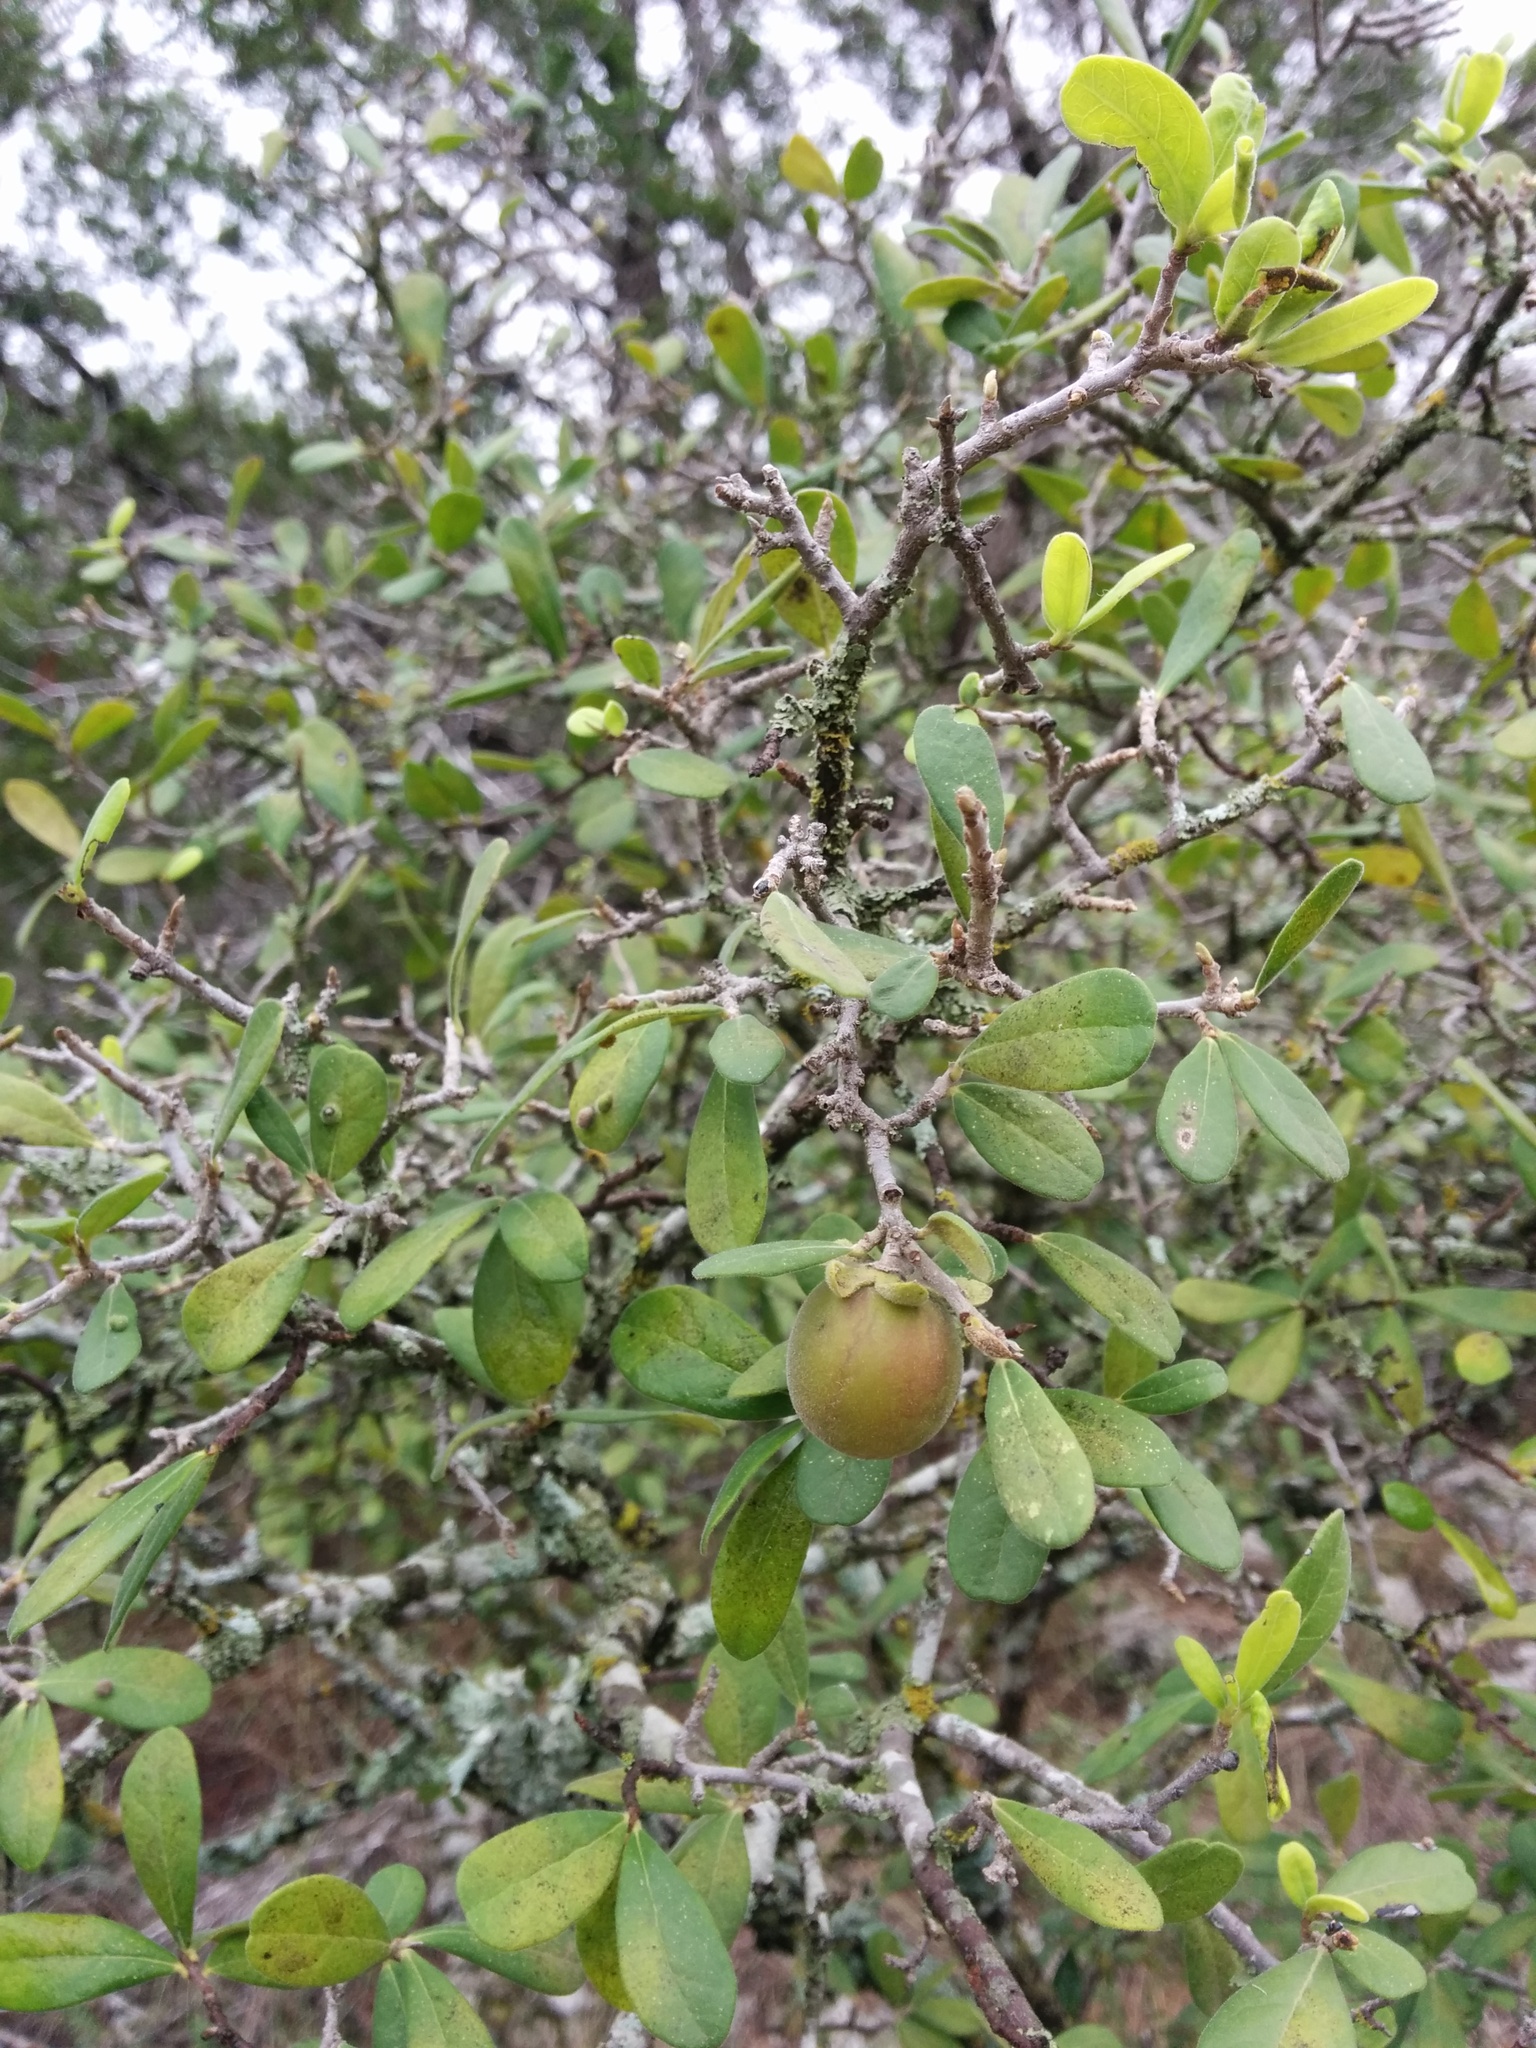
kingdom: Plantae
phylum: Tracheophyta
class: Magnoliopsida
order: Ericales
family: Ebenaceae
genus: Diospyros
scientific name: Diospyros texana
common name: Texas persimmon
